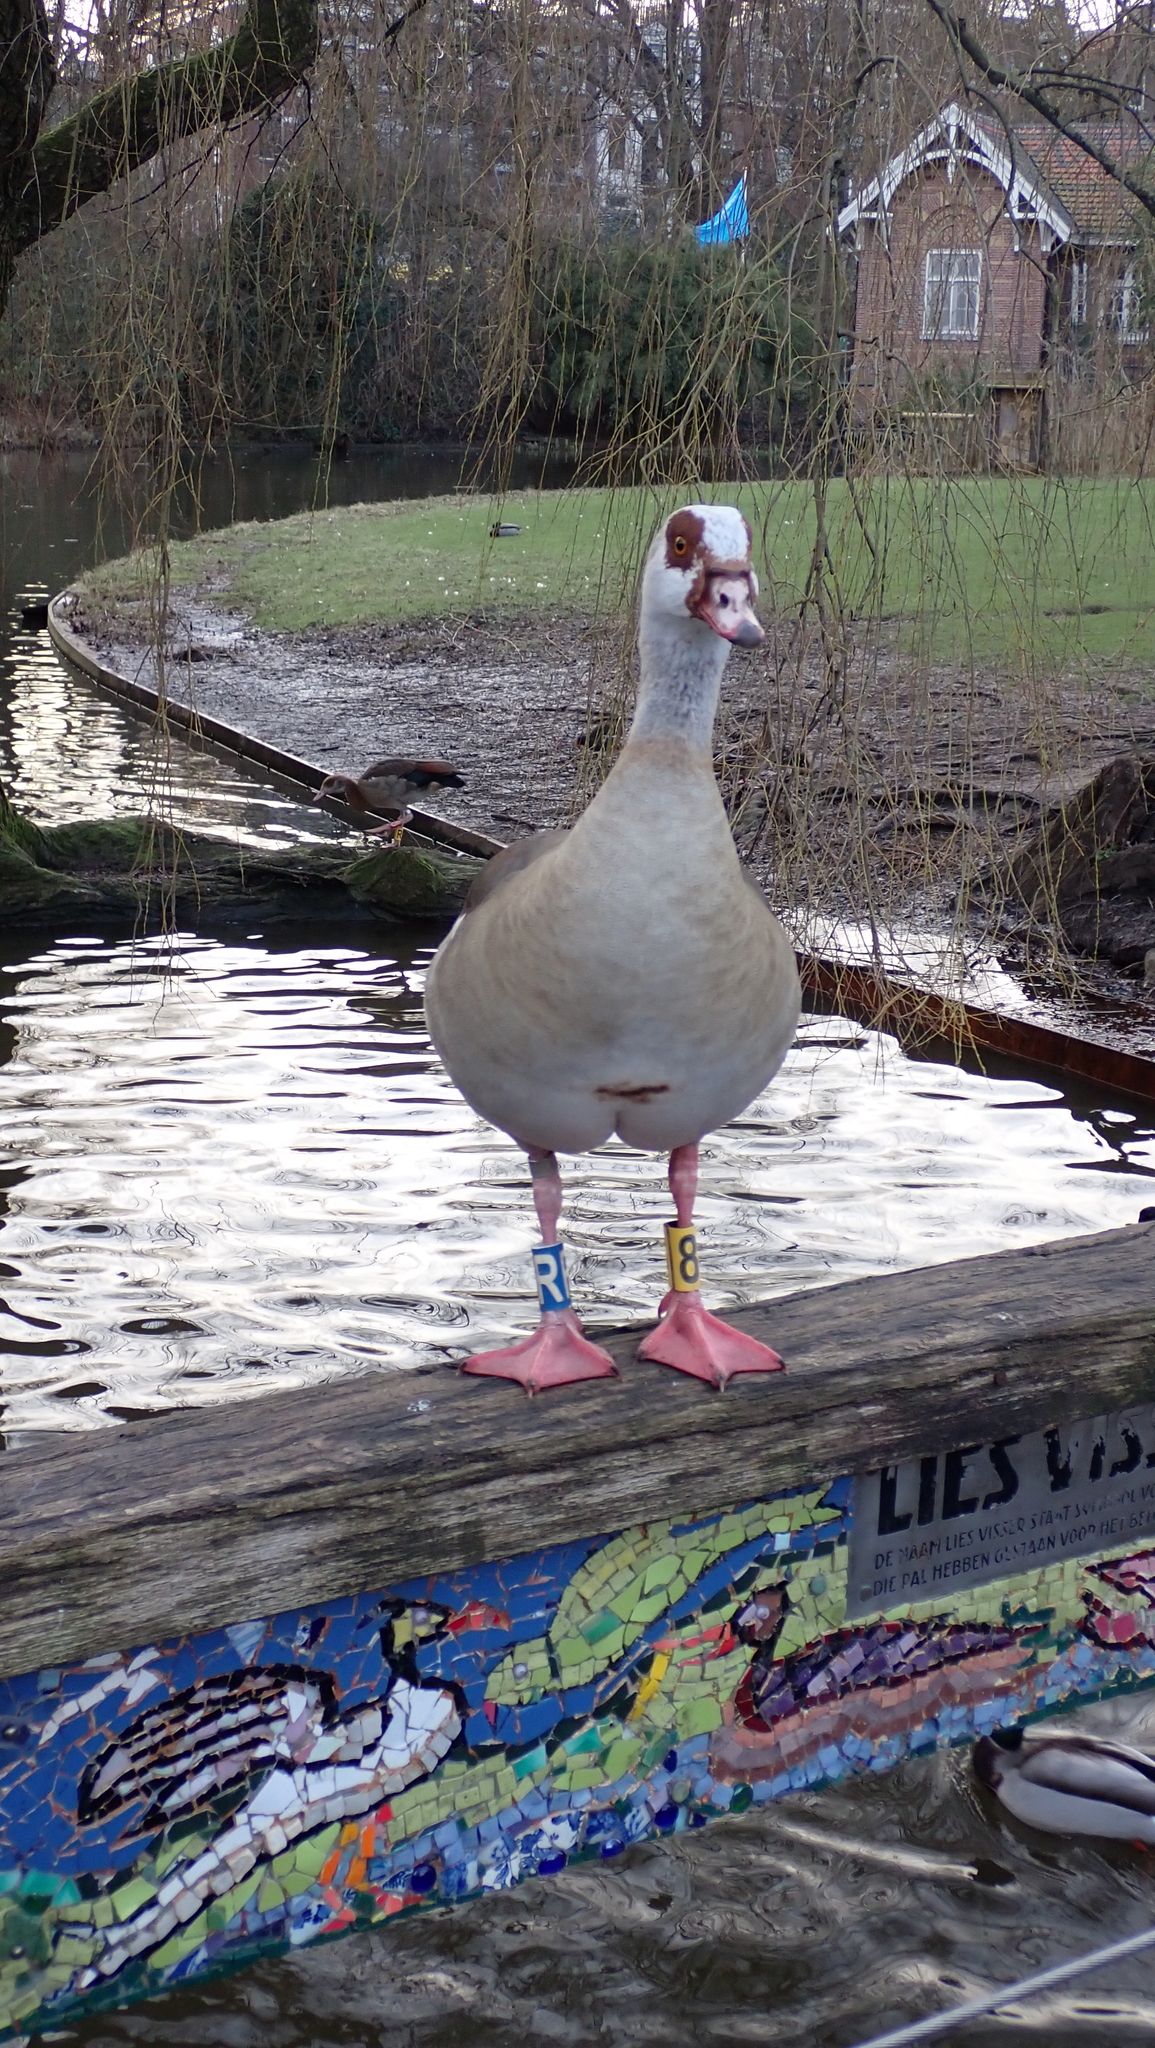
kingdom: Animalia
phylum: Chordata
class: Aves
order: Anseriformes
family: Anatidae
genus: Alopochen
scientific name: Alopochen aegyptiaca
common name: Egyptian goose
